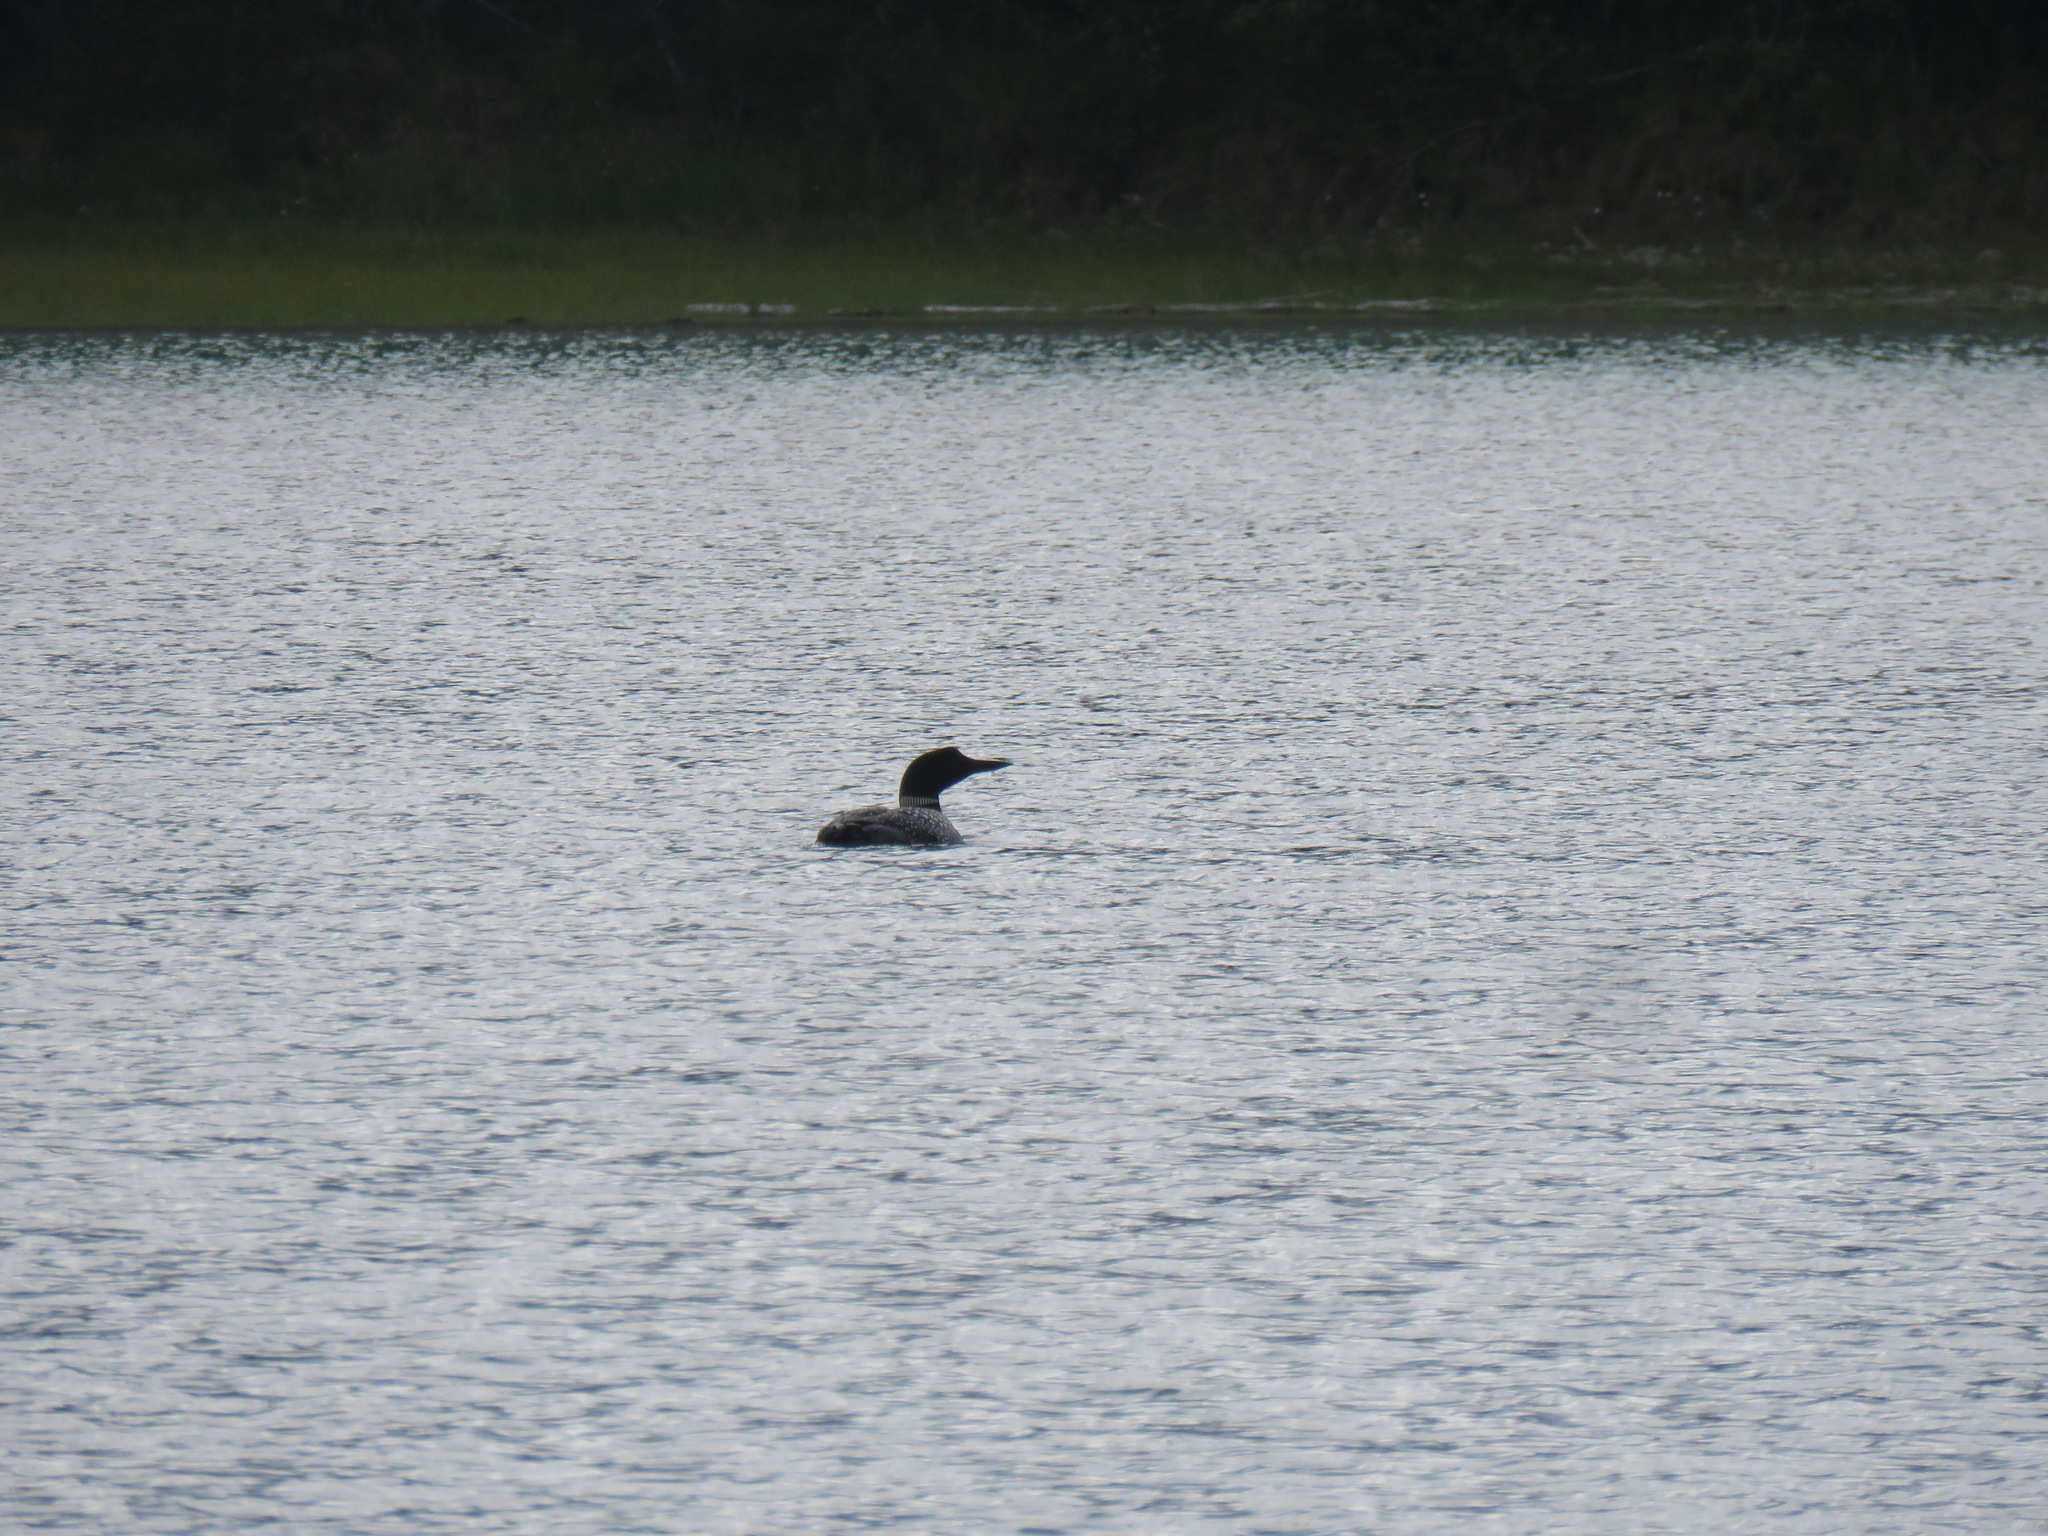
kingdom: Animalia
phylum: Chordata
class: Aves
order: Gaviiformes
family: Gaviidae
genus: Gavia
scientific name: Gavia immer
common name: Common loon
